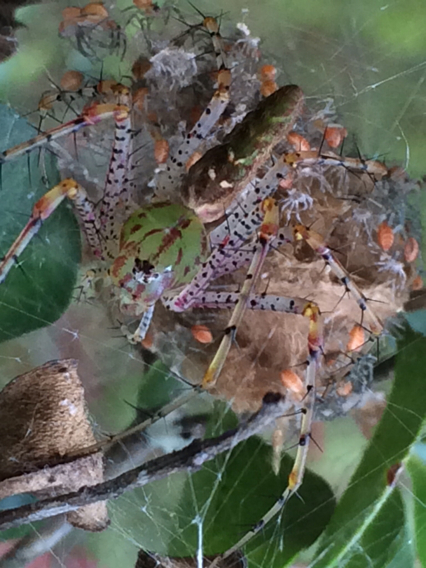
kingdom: Animalia
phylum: Arthropoda
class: Arachnida
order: Araneae
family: Oxyopidae
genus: Peucetia
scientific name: Peucetia viridans
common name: Lynx spiders
